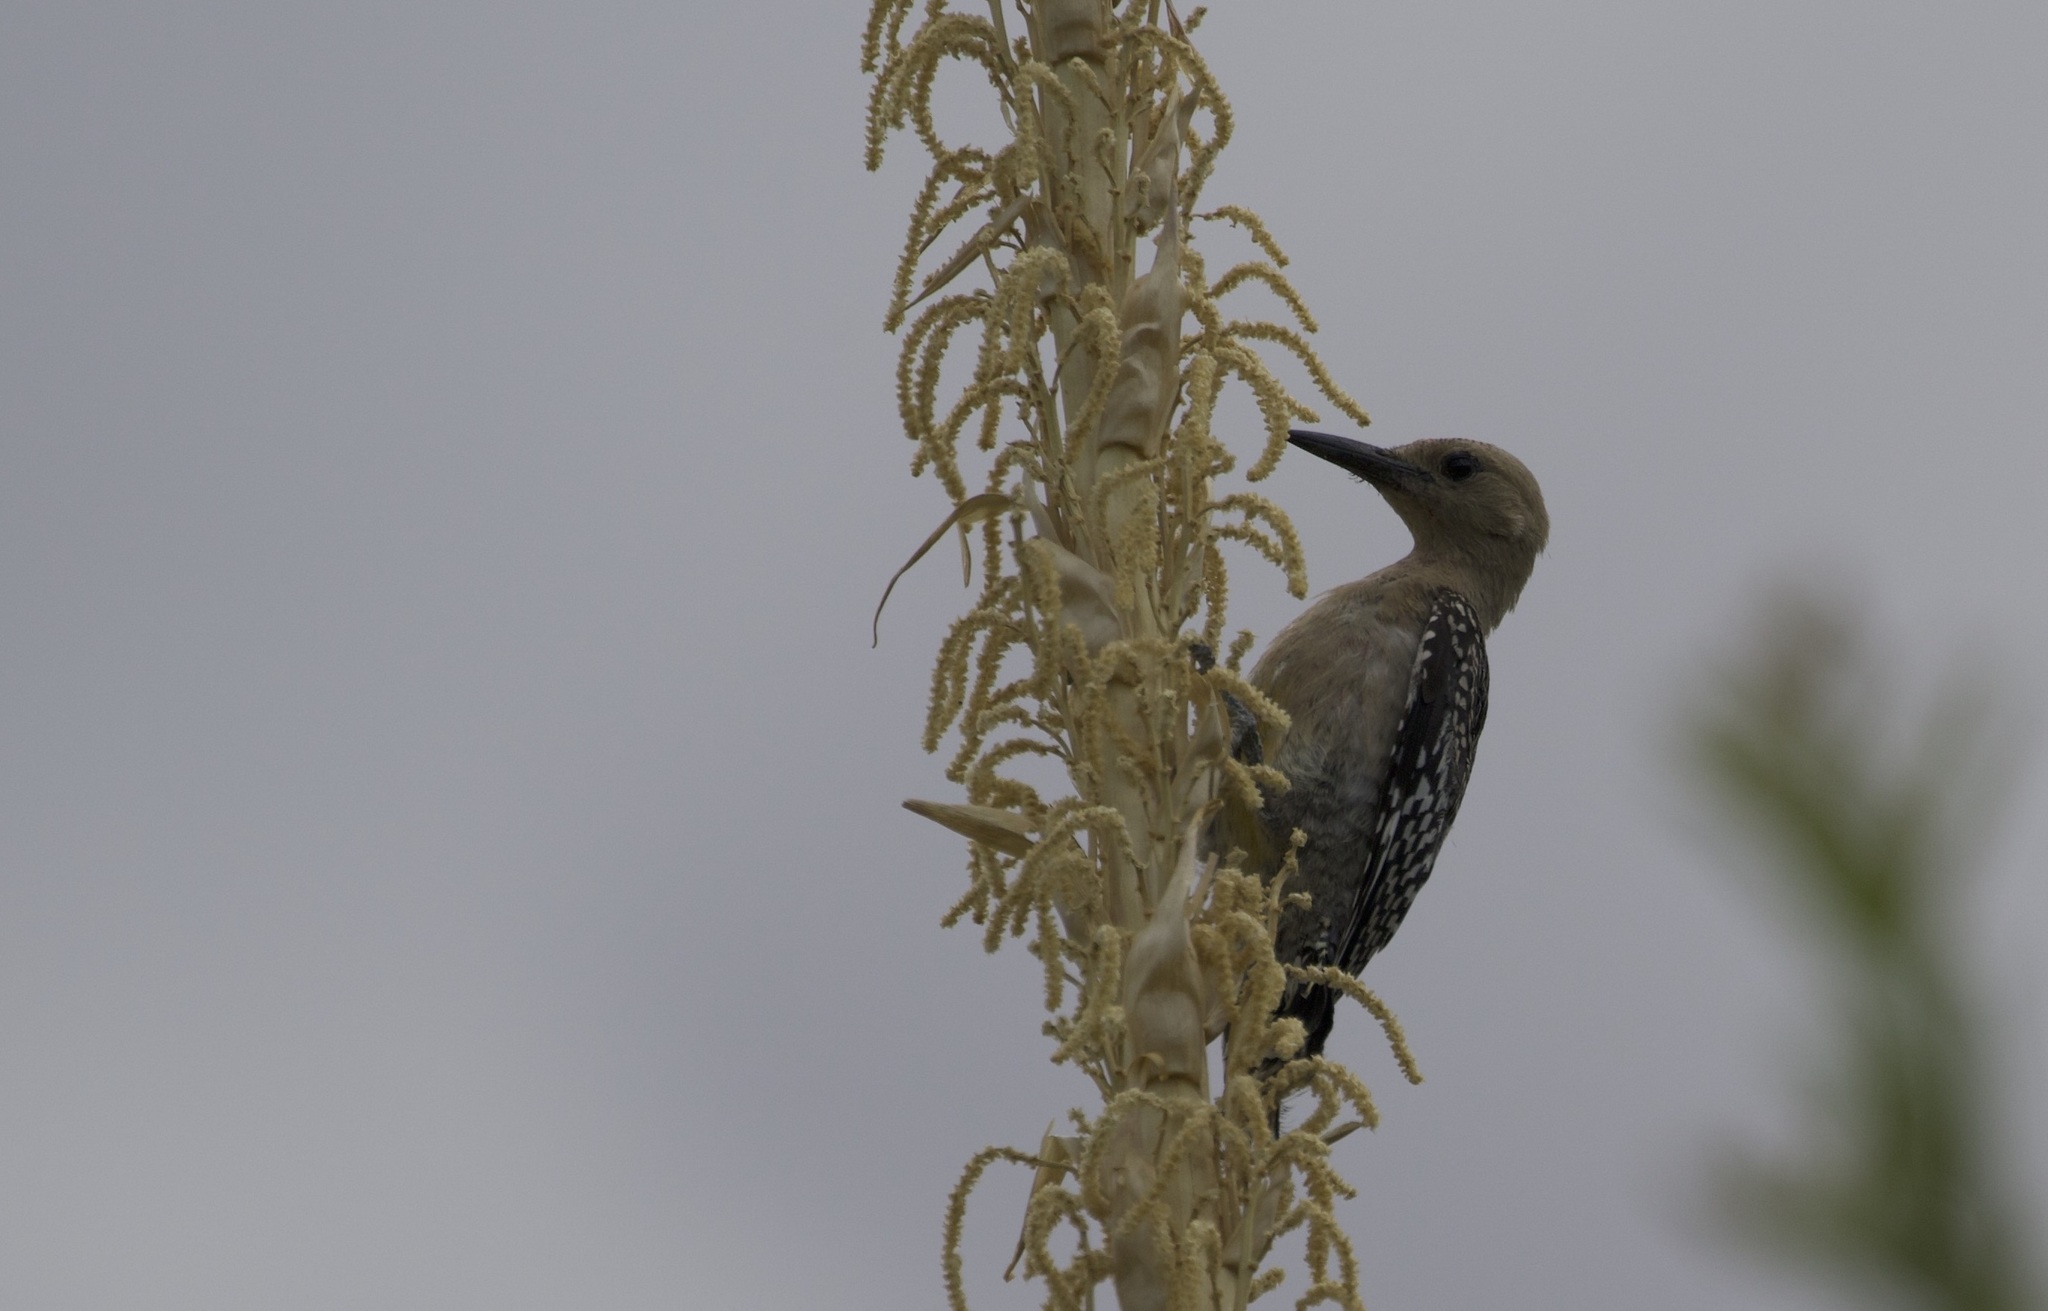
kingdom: Animalia
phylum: Chordata
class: Aves
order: Piciformes
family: Picidae
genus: Melanerpes
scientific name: Melanerpes uropygialis
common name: Gila woodpecker
